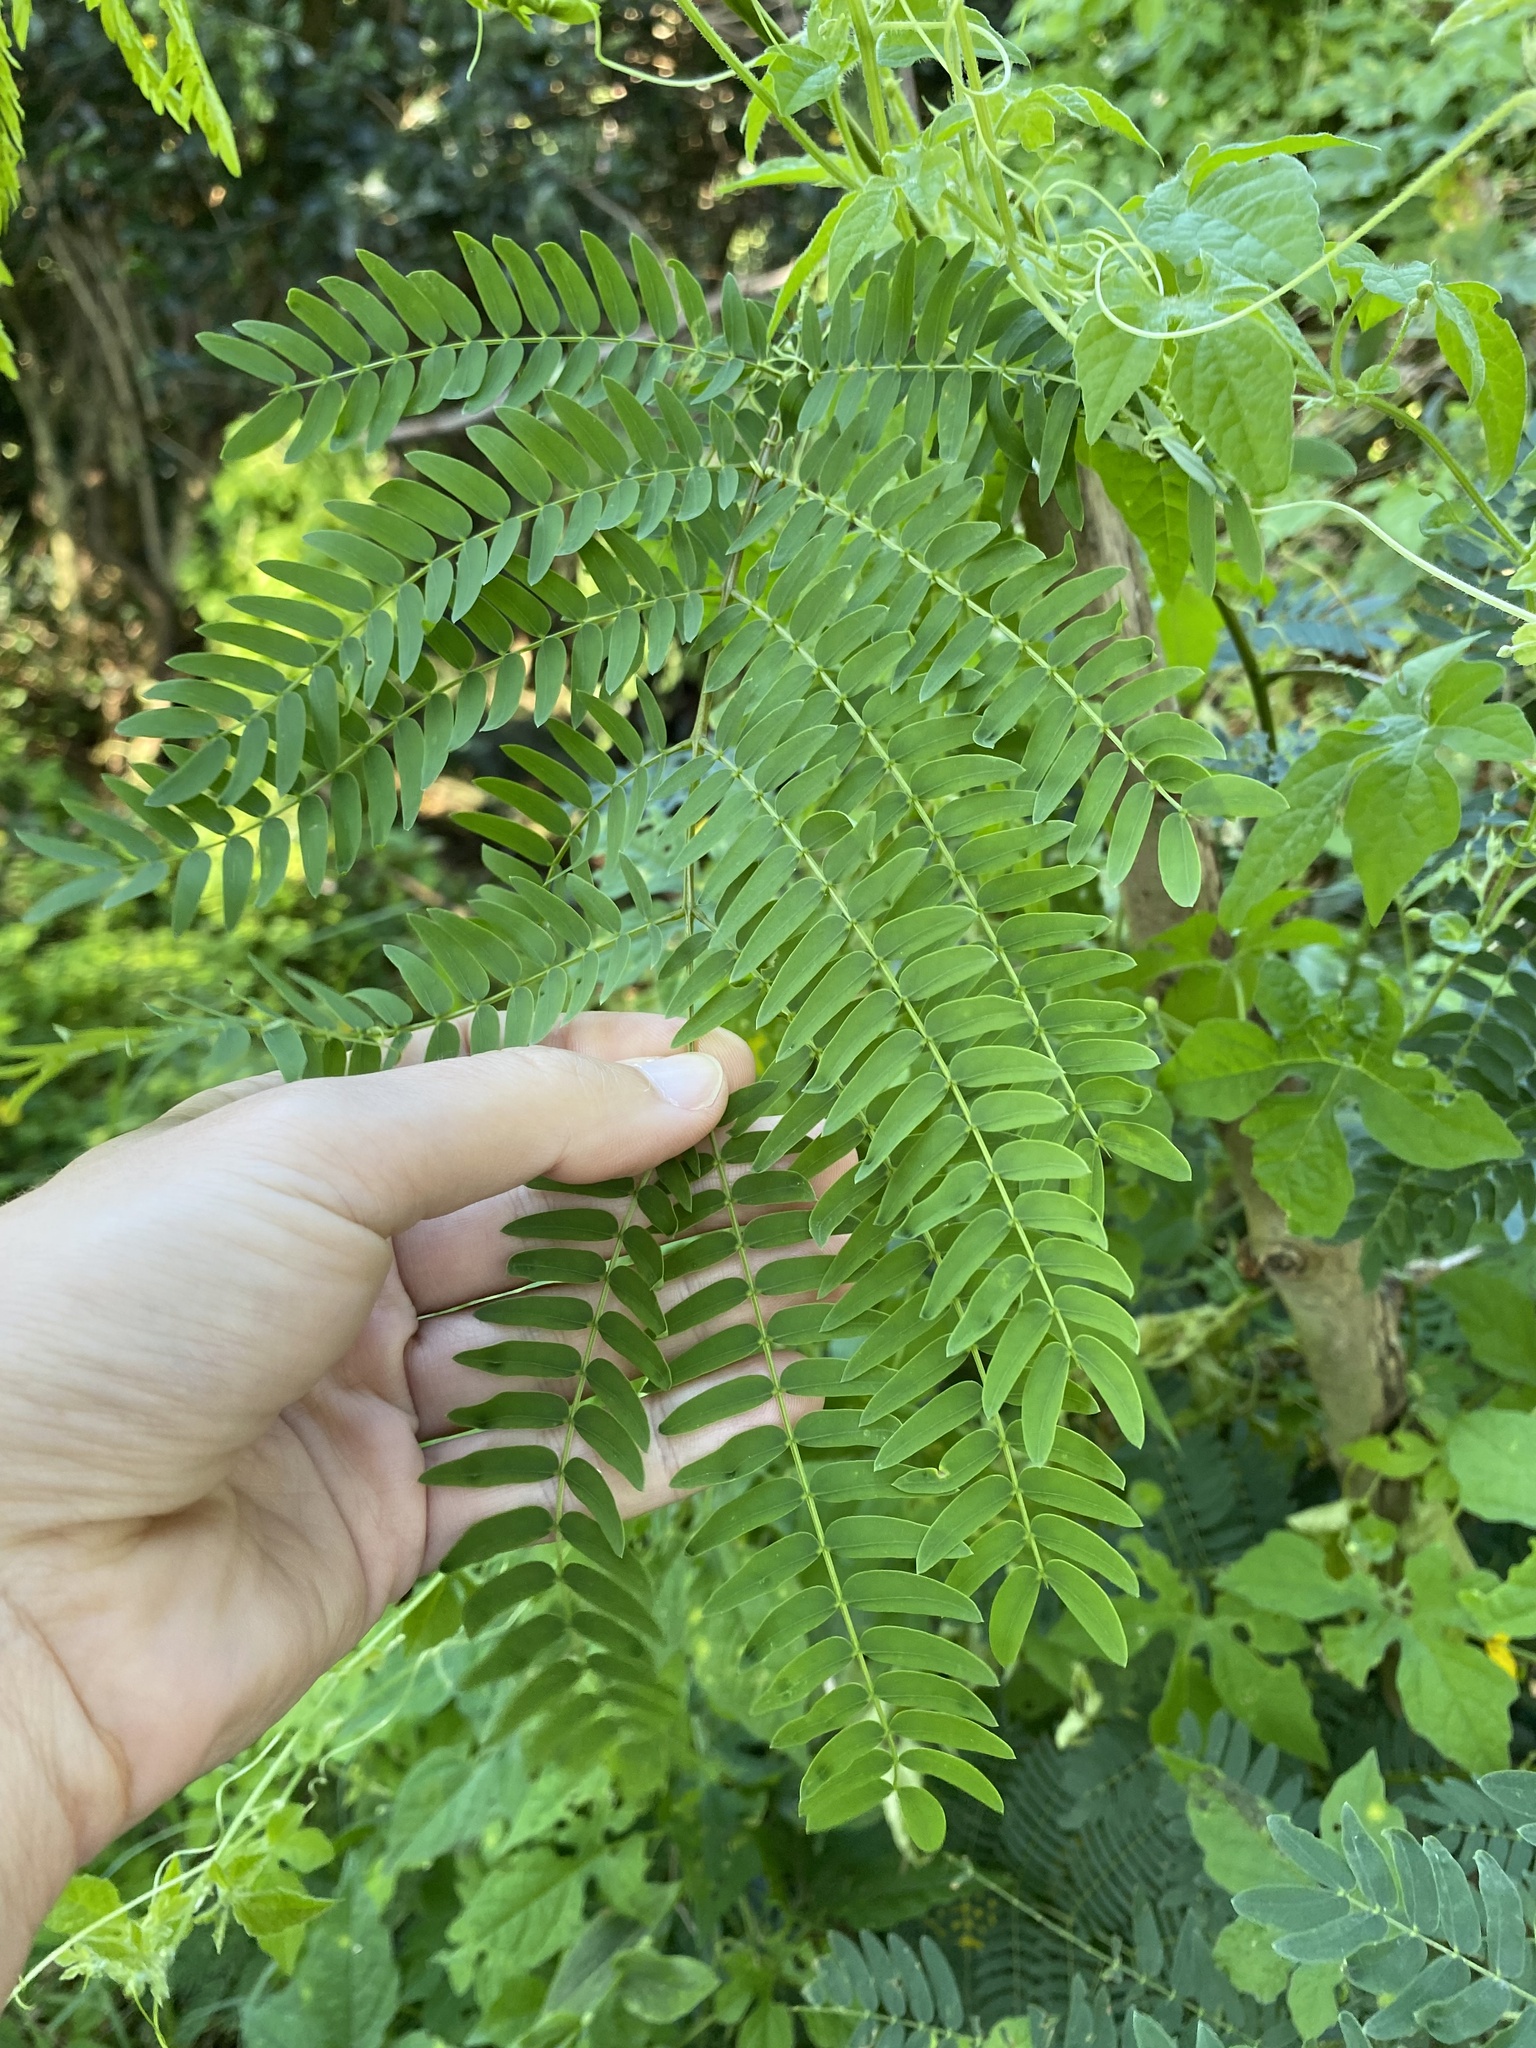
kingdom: Plantae
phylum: Tracheophyta
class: Magnoliopsida
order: Fabales
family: Fabaceae
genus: Leucaena
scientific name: Leucaena leucocephala
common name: White leadtree
